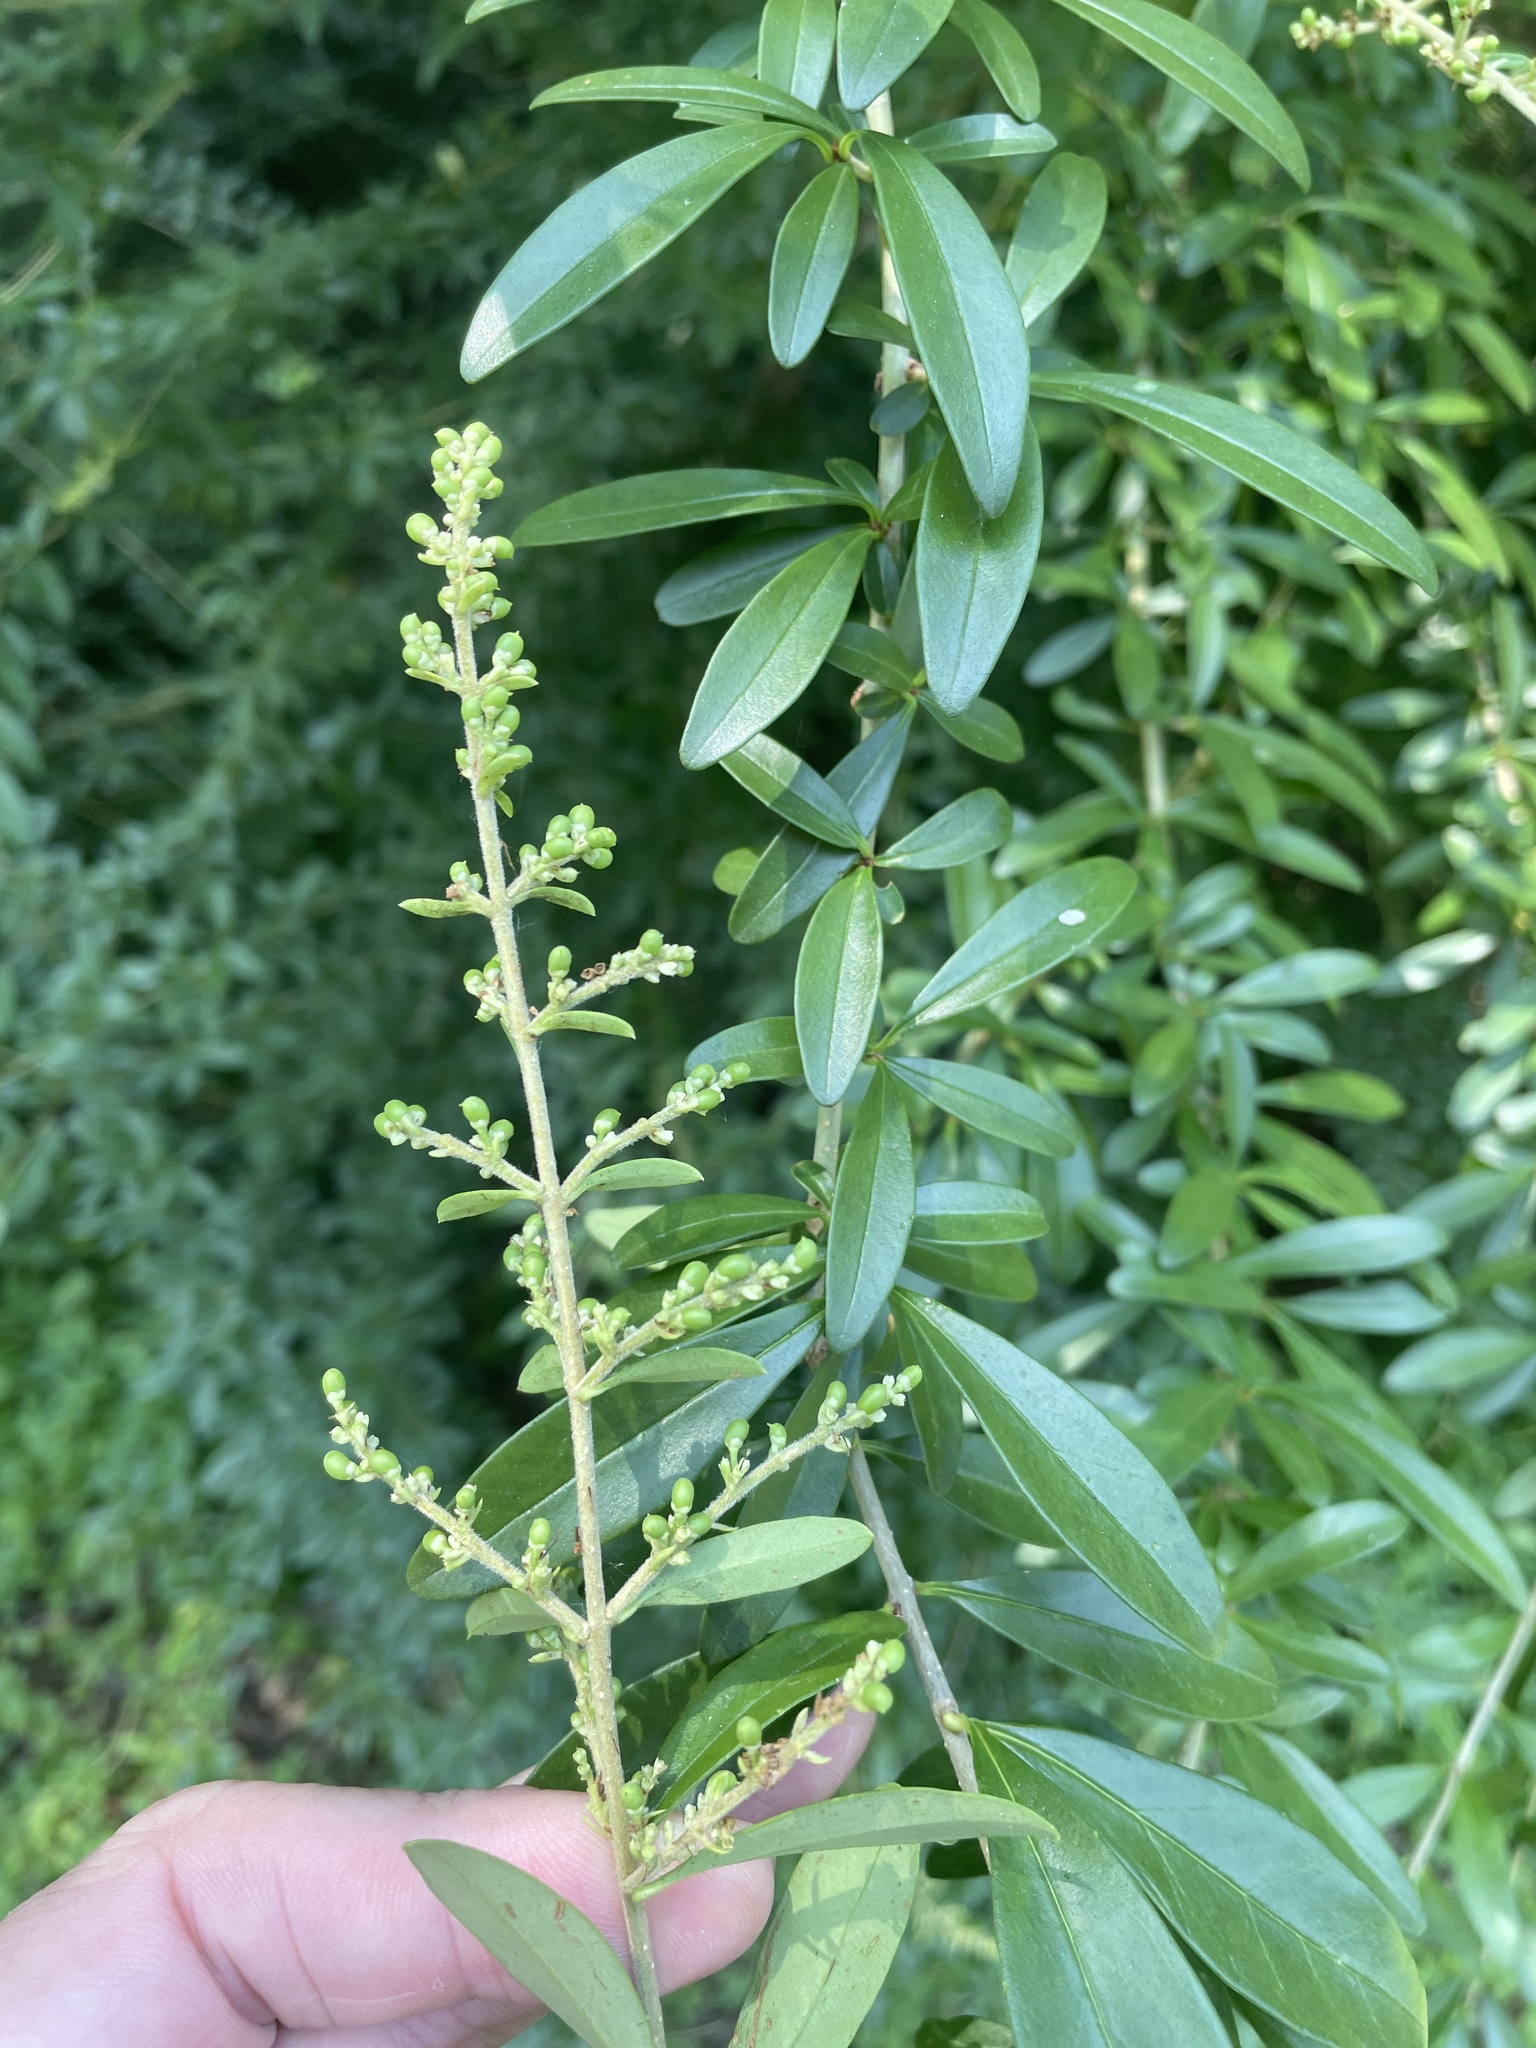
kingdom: Plantae
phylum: Tracheophyta
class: Magnoliopsida
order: Lamiales
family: Oleaceae
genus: Ligustrum
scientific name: Ligustrum quihoui
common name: Waxyleaf privet
